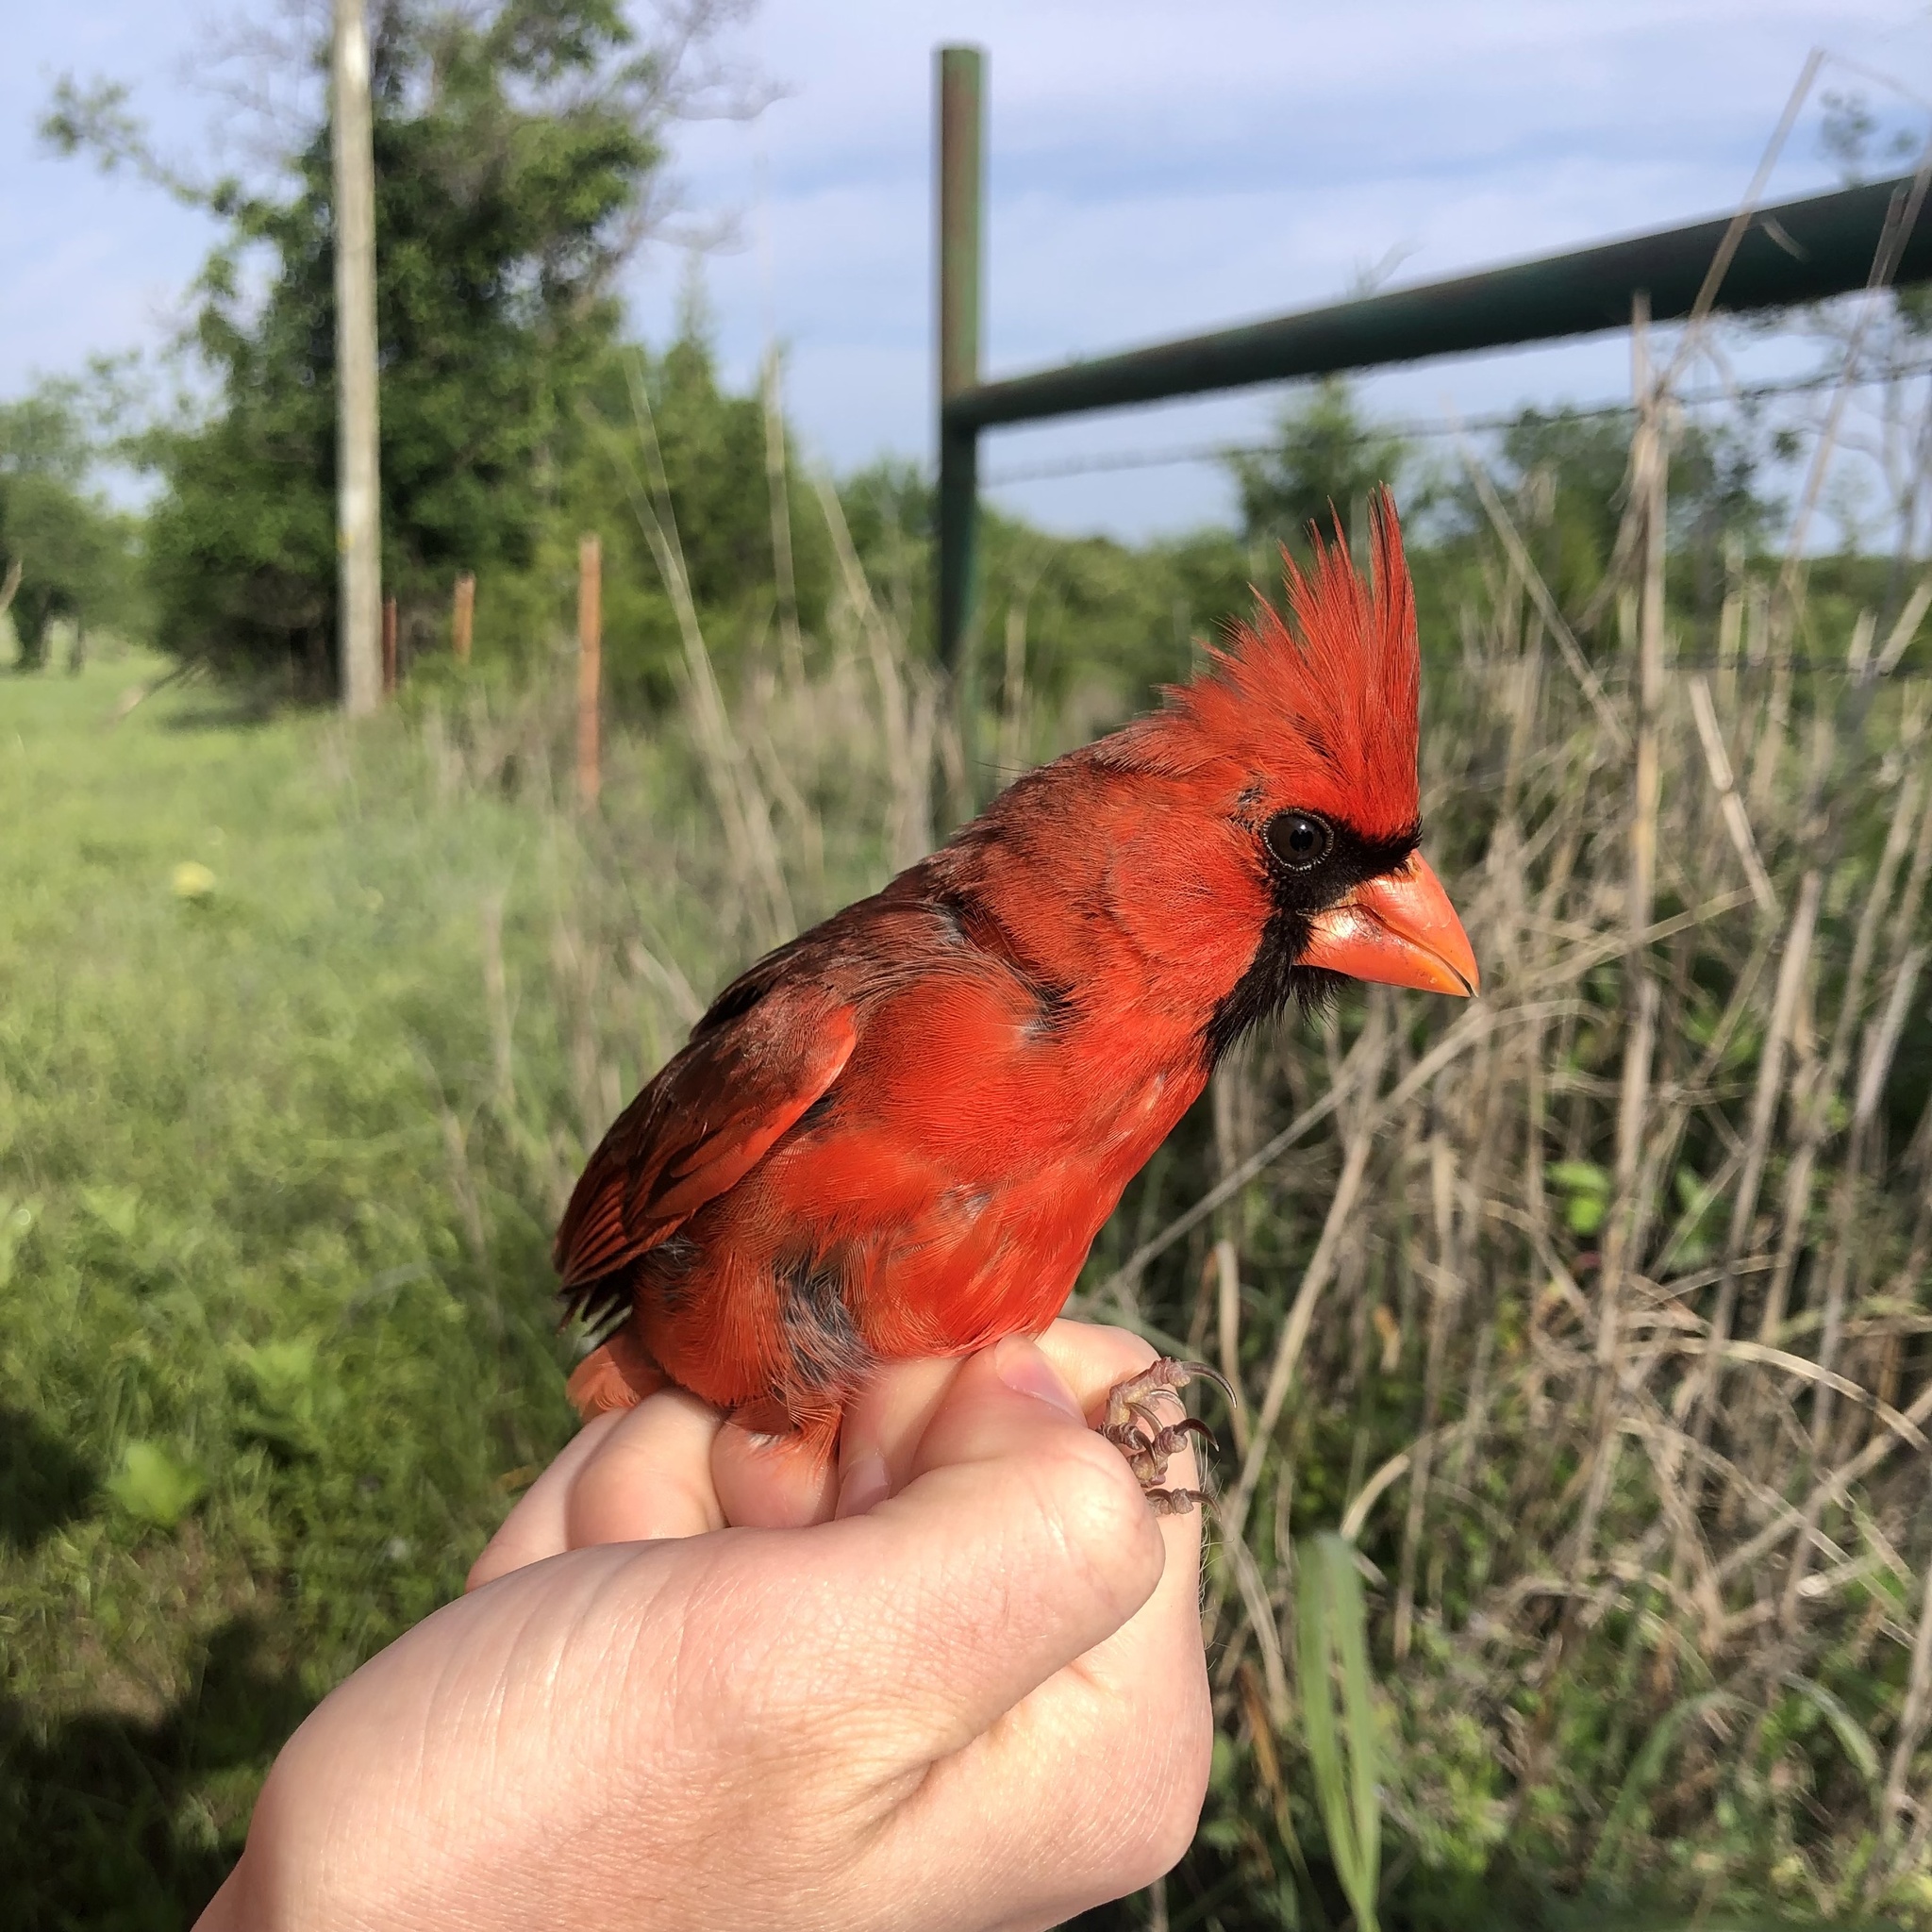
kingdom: Animalia
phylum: Chordata
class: Aves
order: Passeriformes
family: Cardinalidae
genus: Cardinalis
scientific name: Cardinalis cardinalis
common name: Northern cardinal
